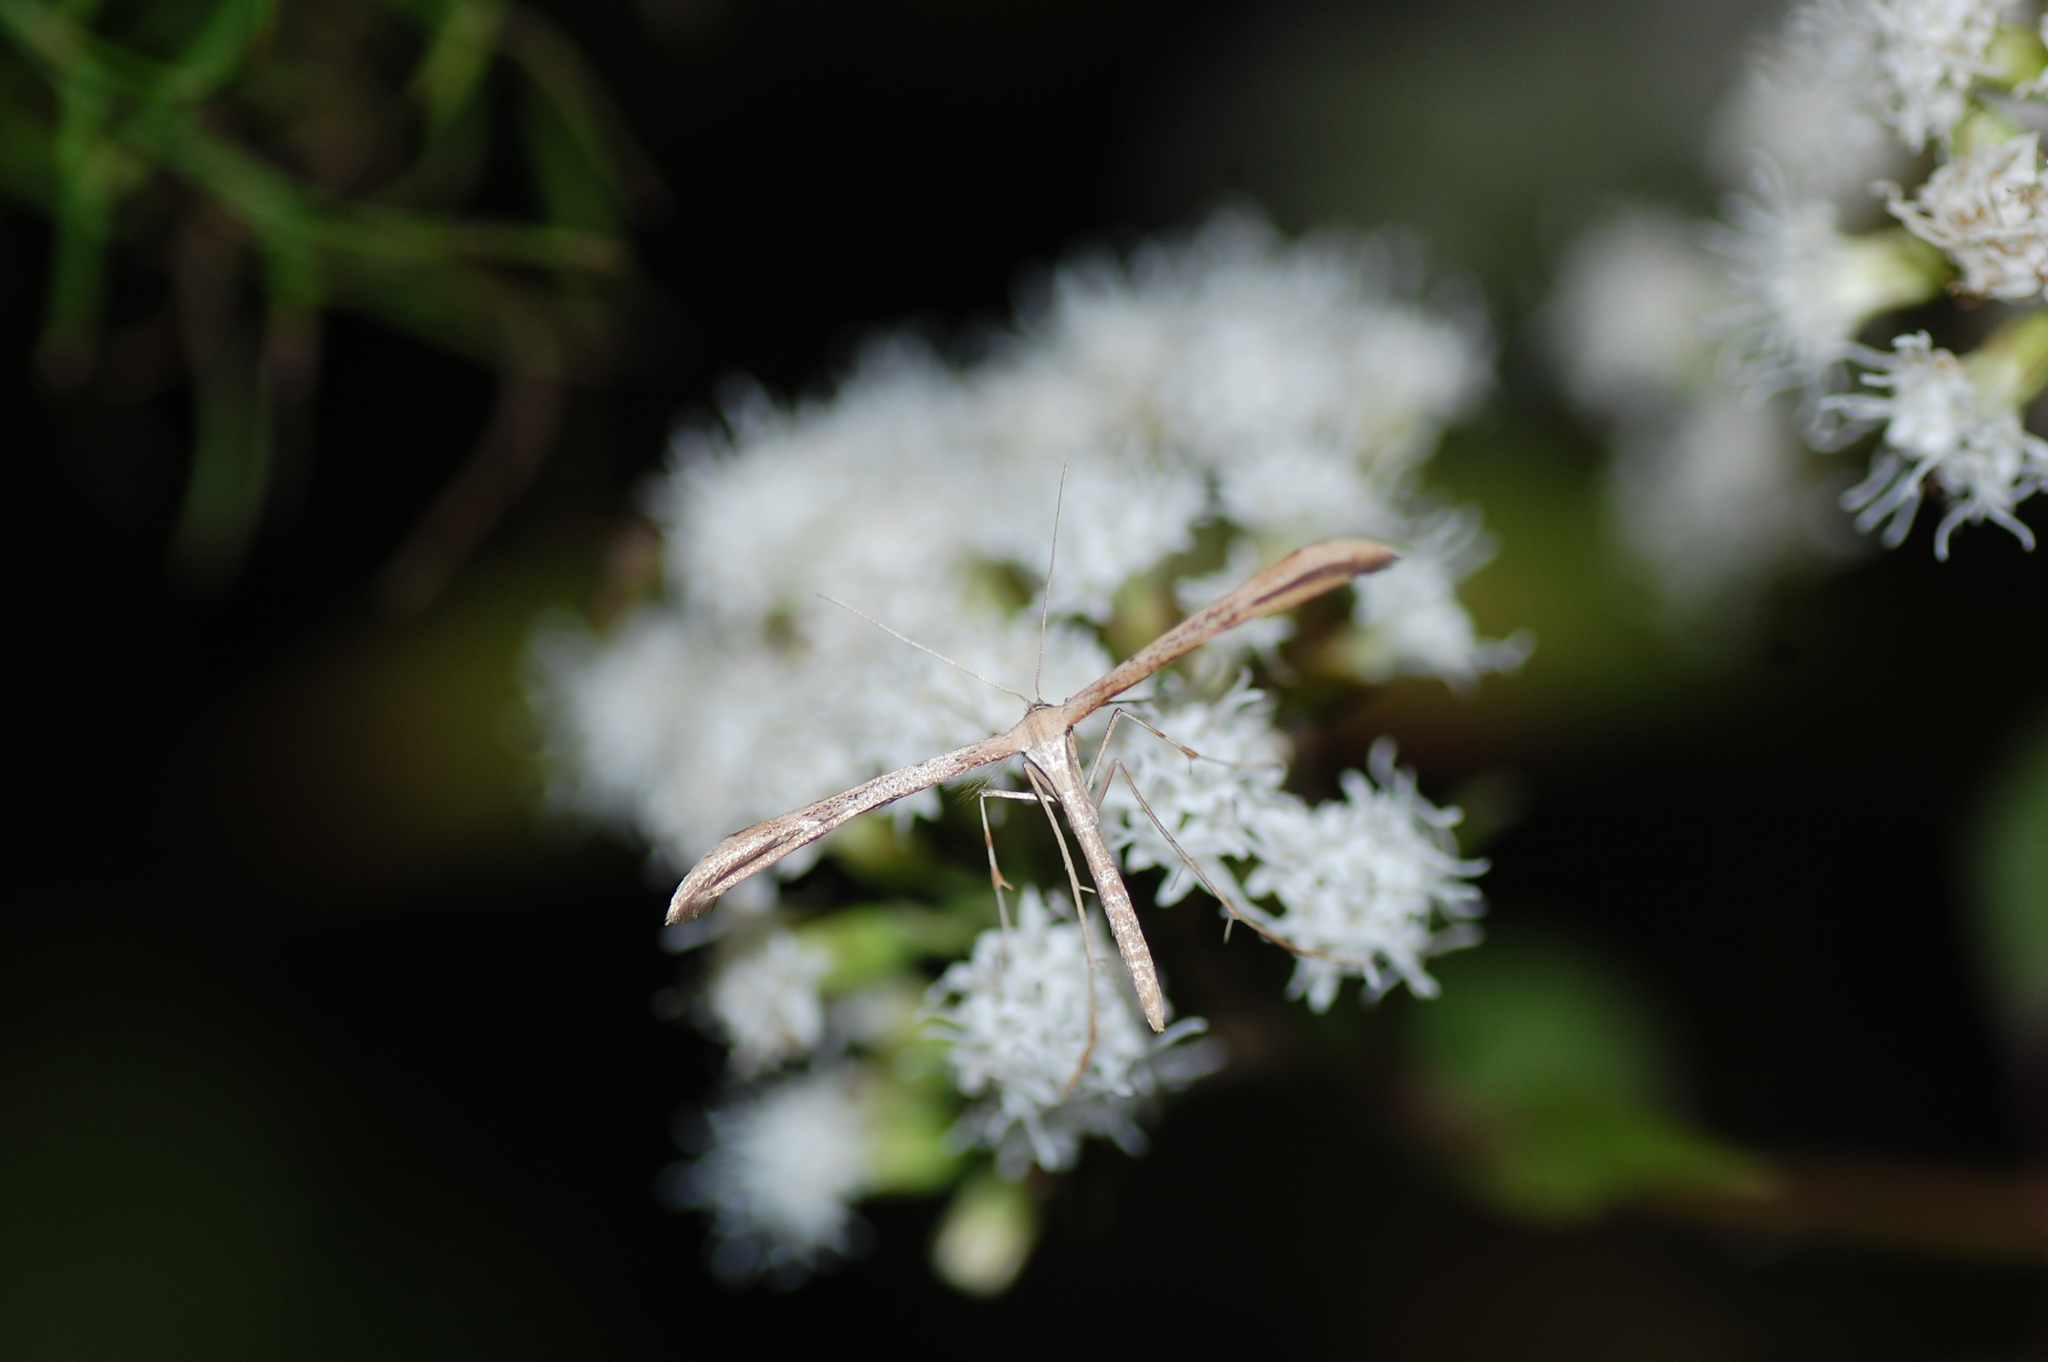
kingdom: Animalia
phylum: Arthropoda
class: Insecta
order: Lepidoptera
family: Pterophoridae
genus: Emmelina
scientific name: Emmelina monodactyla
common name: Common plume
